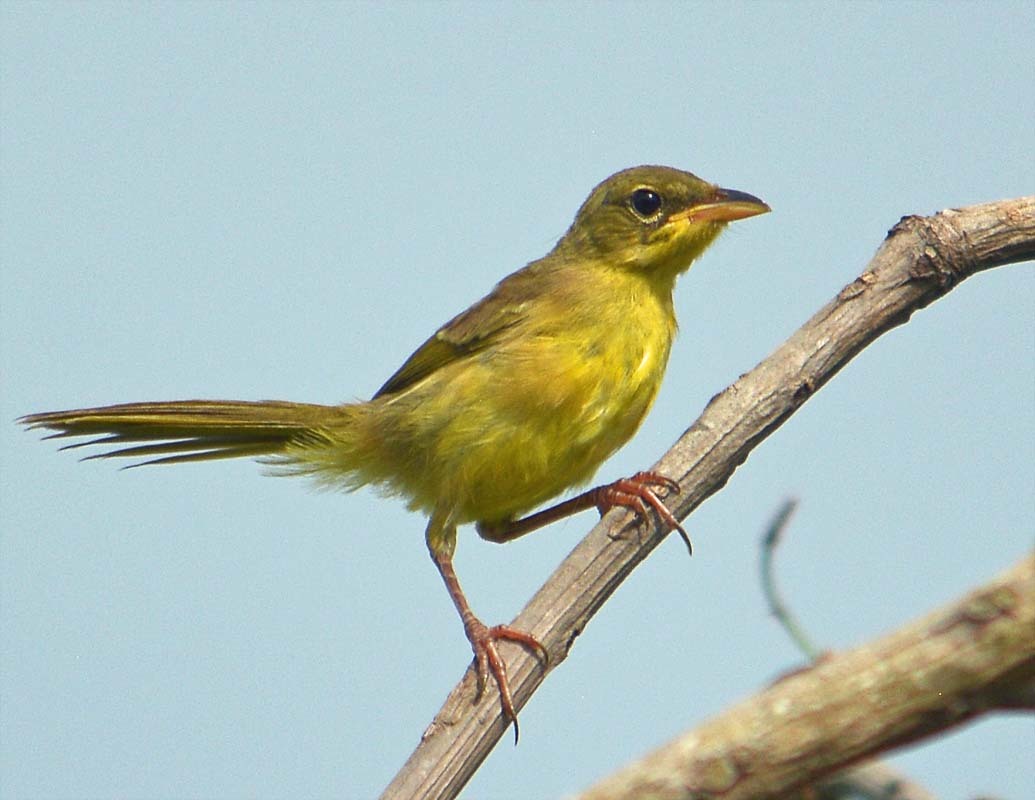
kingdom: Animalia
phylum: Chordata
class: Aves
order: Passeriformes
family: Parulidae
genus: Geothlypis
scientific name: Geothlypis poliocephala
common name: Gray-crowned yellowthroat
